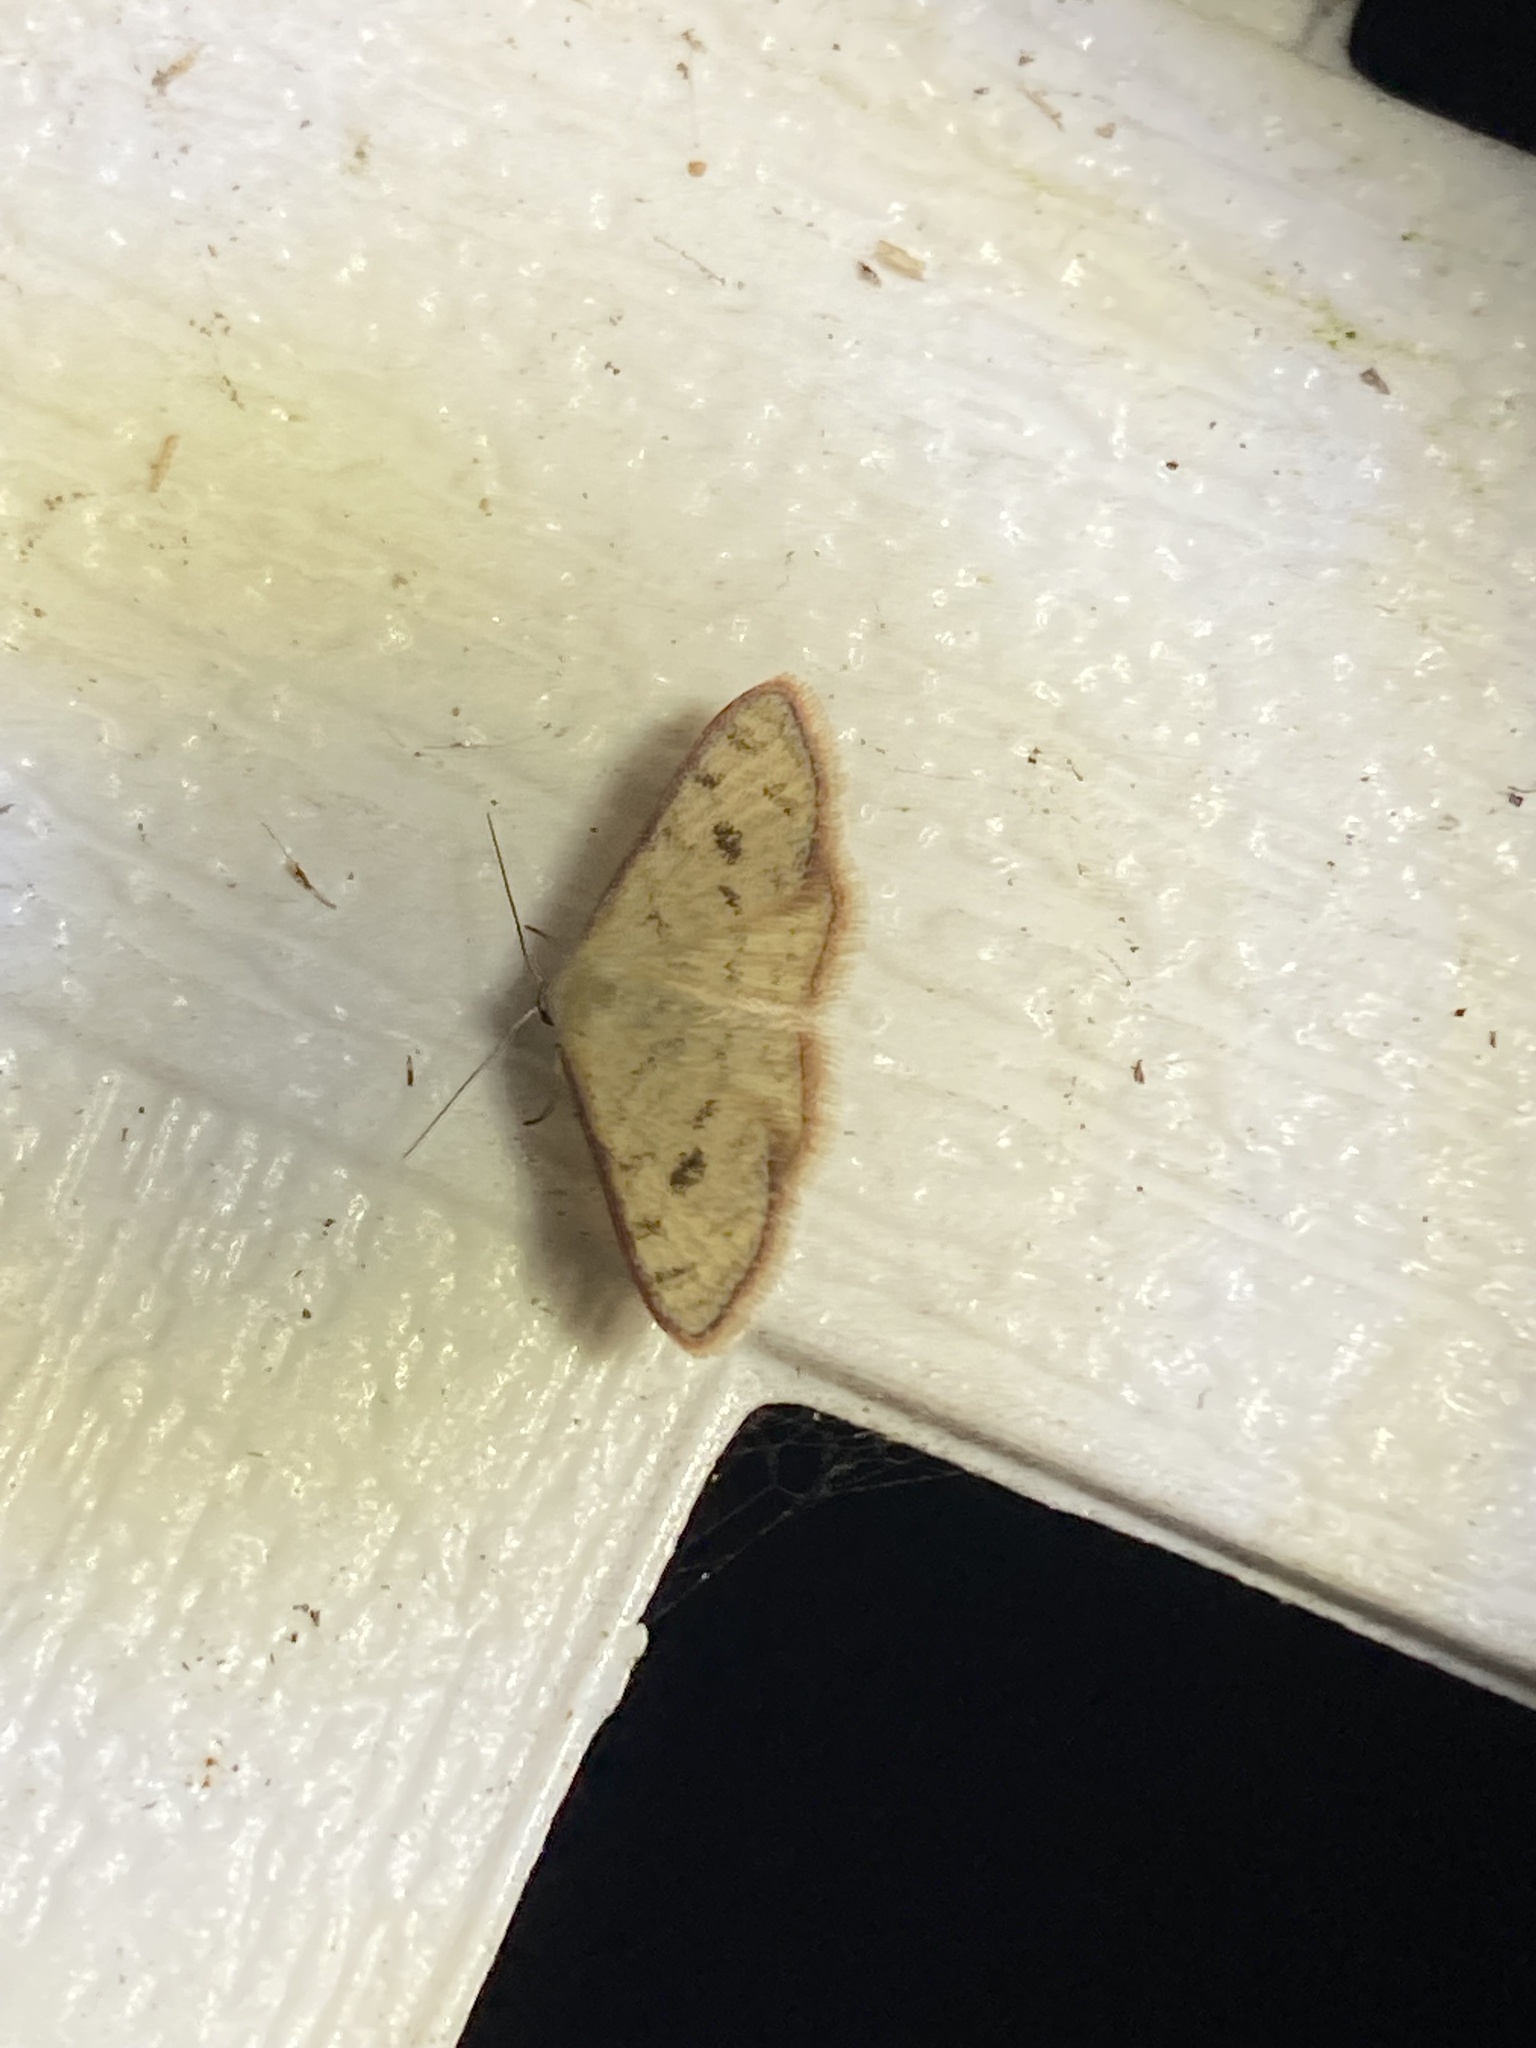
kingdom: Animalia
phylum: Arthropoda
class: Insecta
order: Lepidoptera
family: Geometridae
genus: Leptostales
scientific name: Leptostales pannaria
